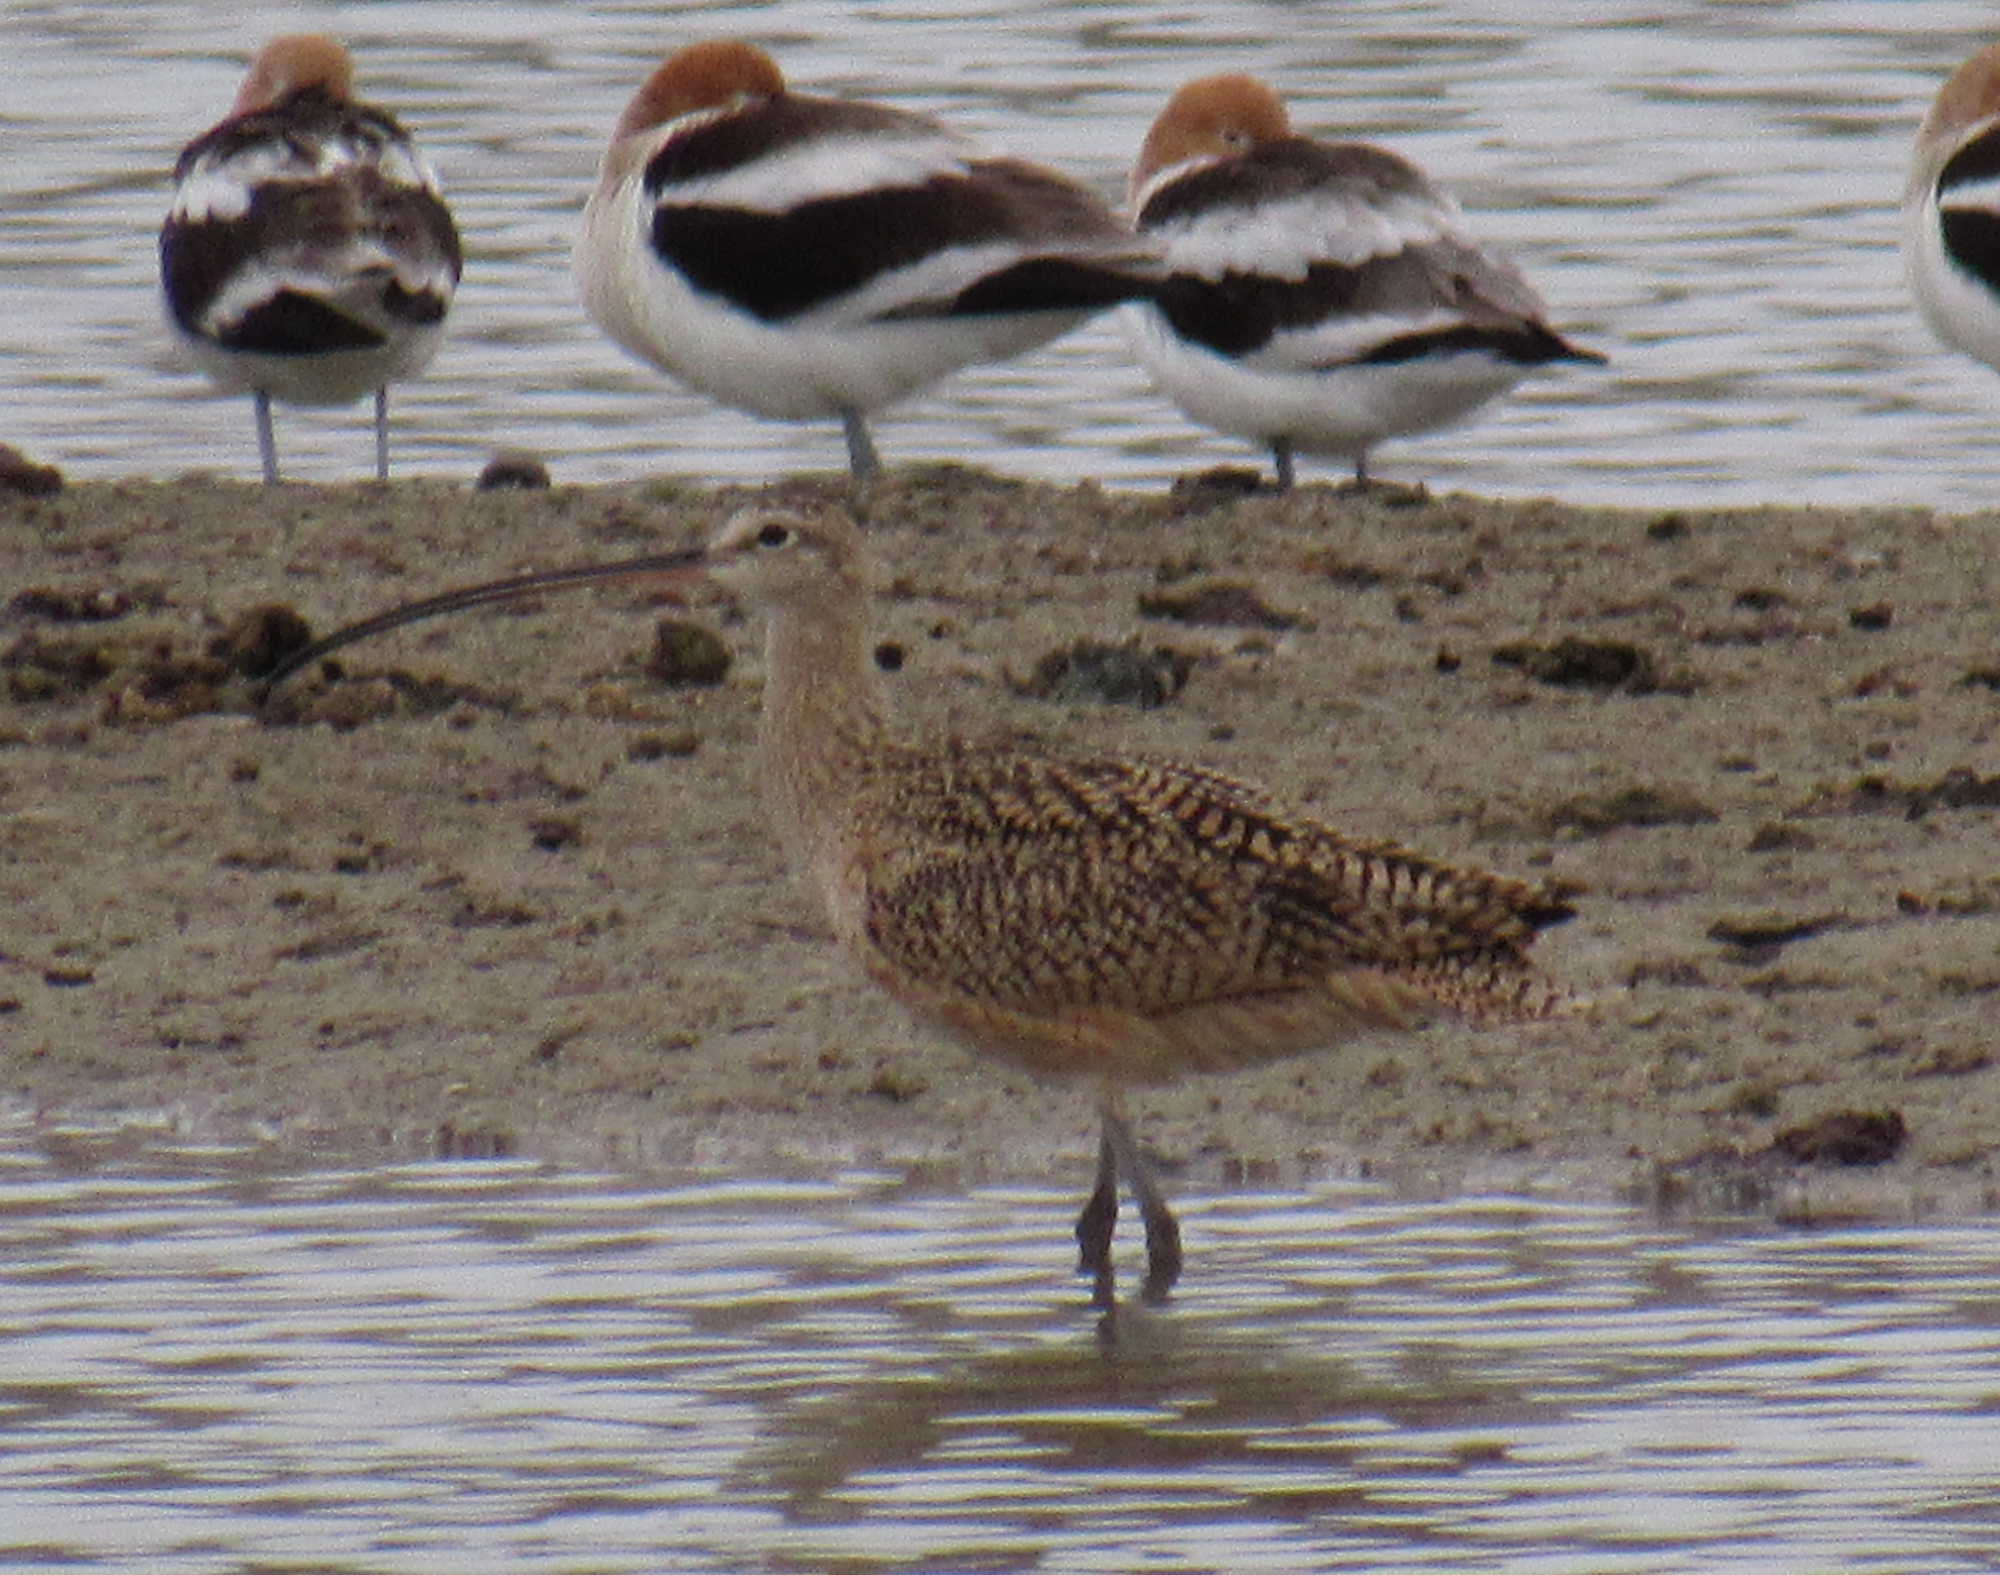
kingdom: Animalia
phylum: Chordata
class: Aves
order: Charadriiformes
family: Scolopacidae
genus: Numenius
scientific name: Numenius americanus
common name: Long-billed curlew
